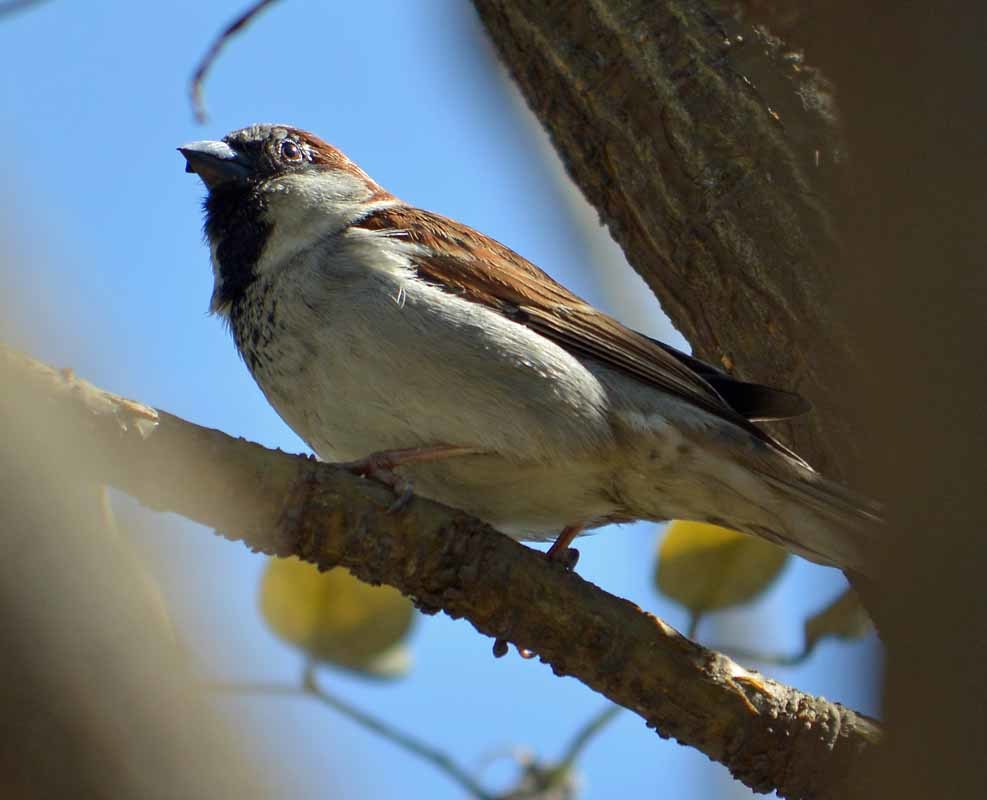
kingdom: Animalia
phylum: Chordata
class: Aves
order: Passeriformes
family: Passeridae
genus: Passer
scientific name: Passer domesticus
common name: House sparrow
